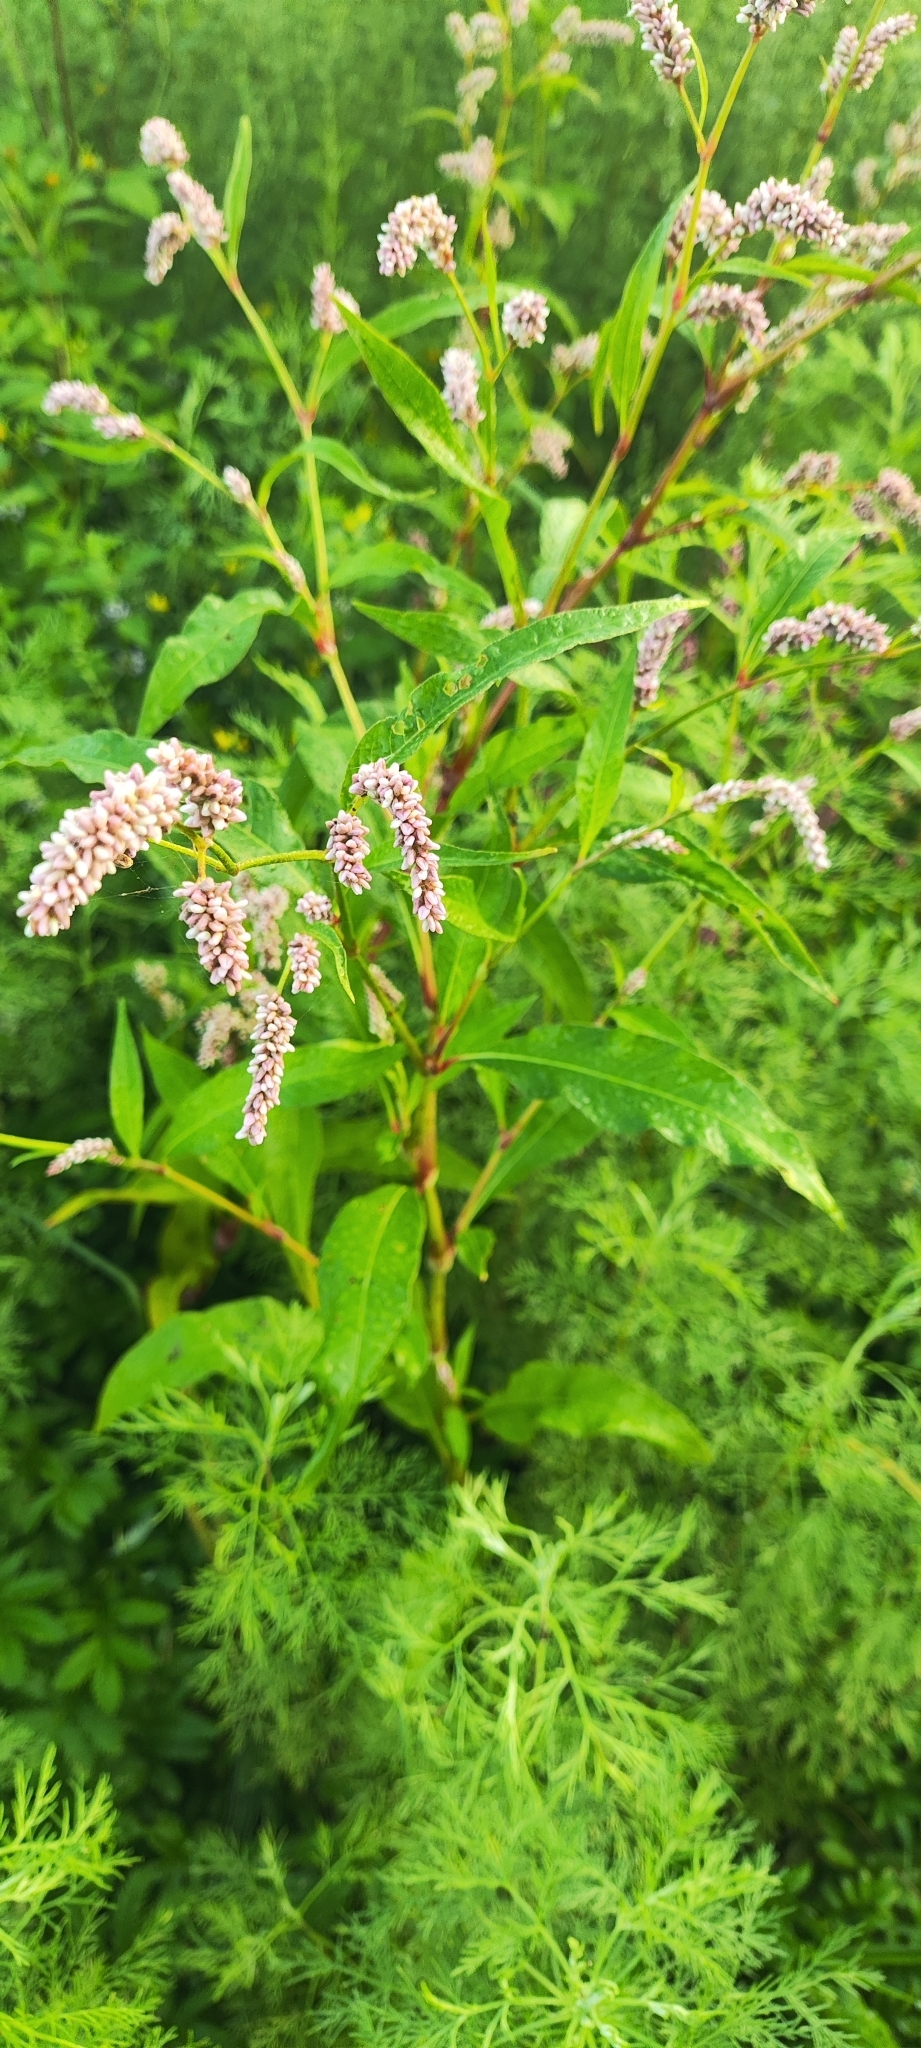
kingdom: Plantae
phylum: Tracheophyta
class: Magnoliopsida
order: Caryophyllales
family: Polygonaceae
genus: Persicaria
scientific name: Persicaria lapathifolia
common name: Curlytop knotweed
